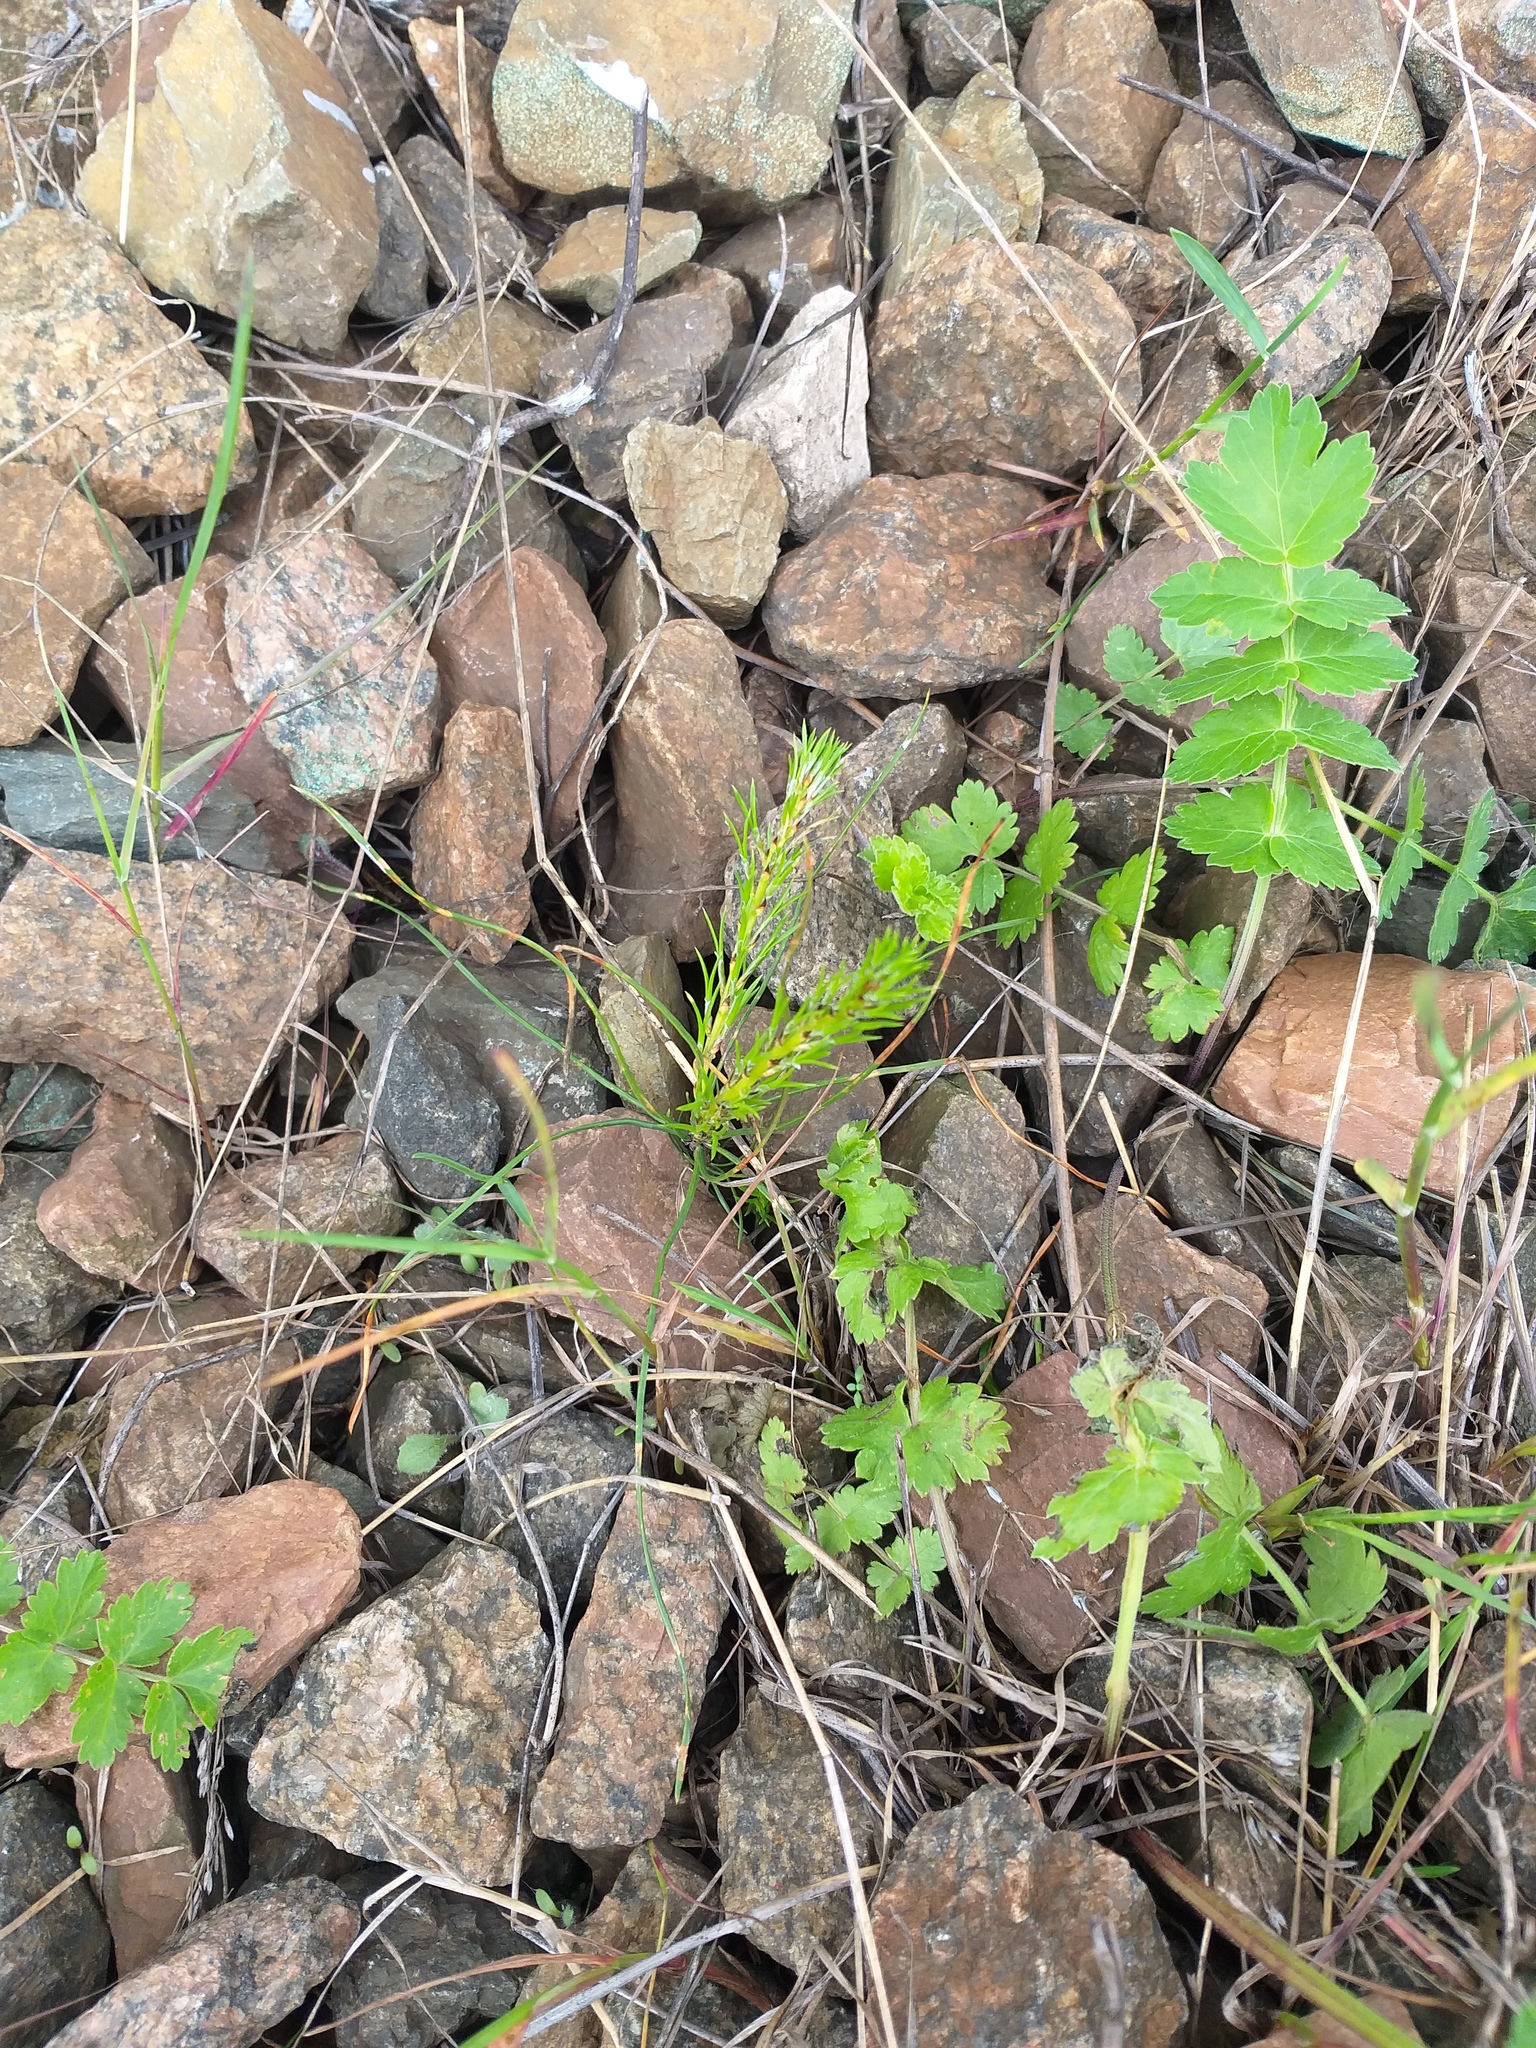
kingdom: Plantae
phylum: Tracheophyta
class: Pinopsida
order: Pinales
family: Pinaceae
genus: Pinus
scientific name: Pinus sylvestris
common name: Scots pine
